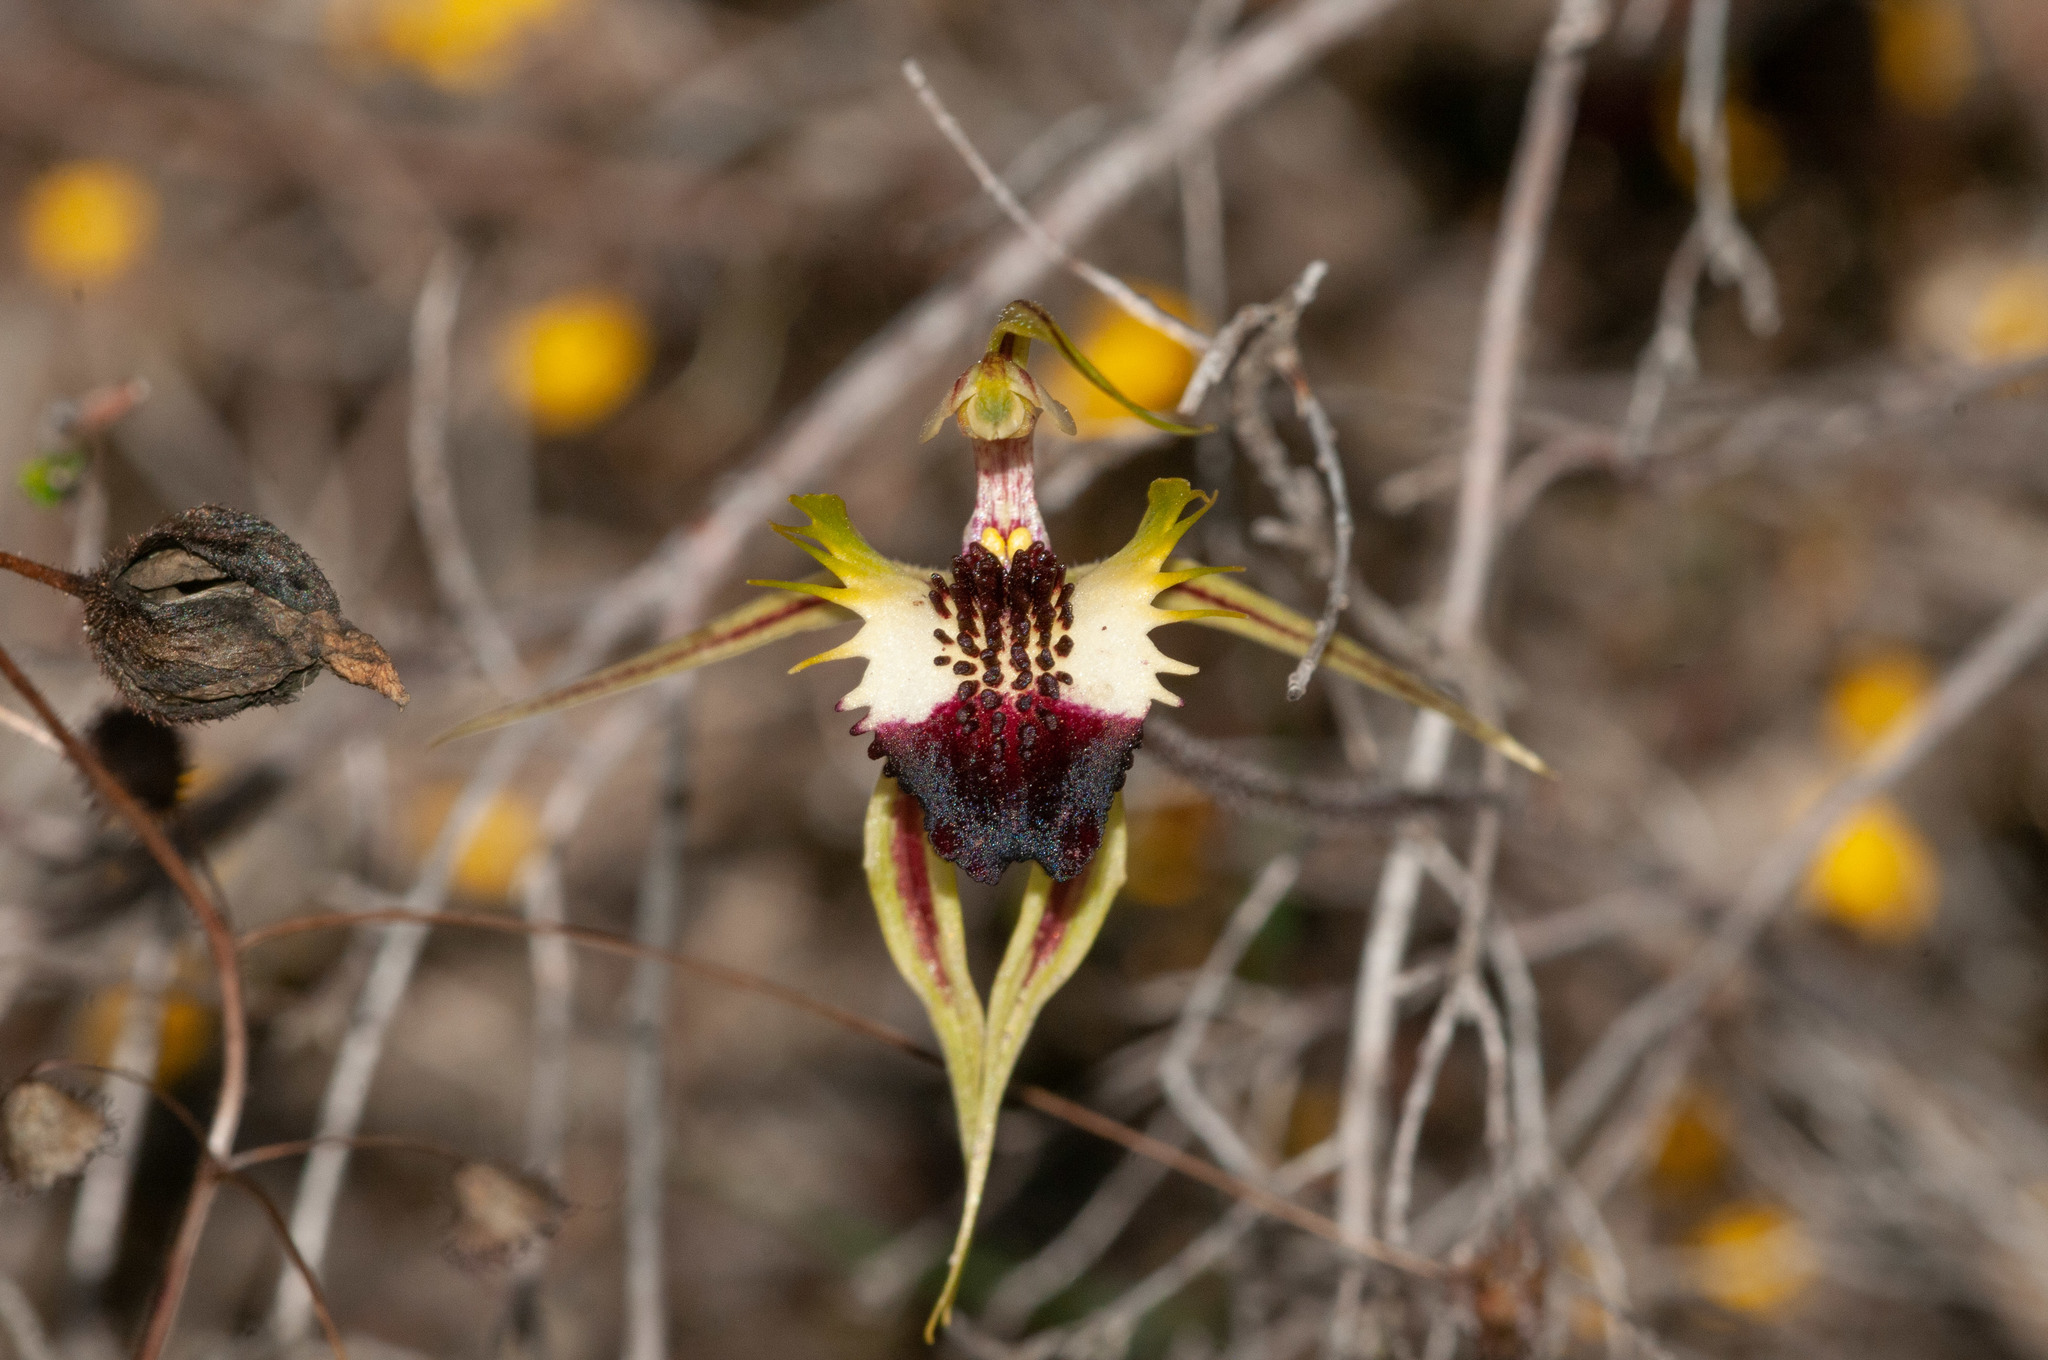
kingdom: Plantae
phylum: Tracheophyta
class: Liliopsida
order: Asparagales
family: Orchidaceae
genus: Caladenia
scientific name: Caladenia stricta
